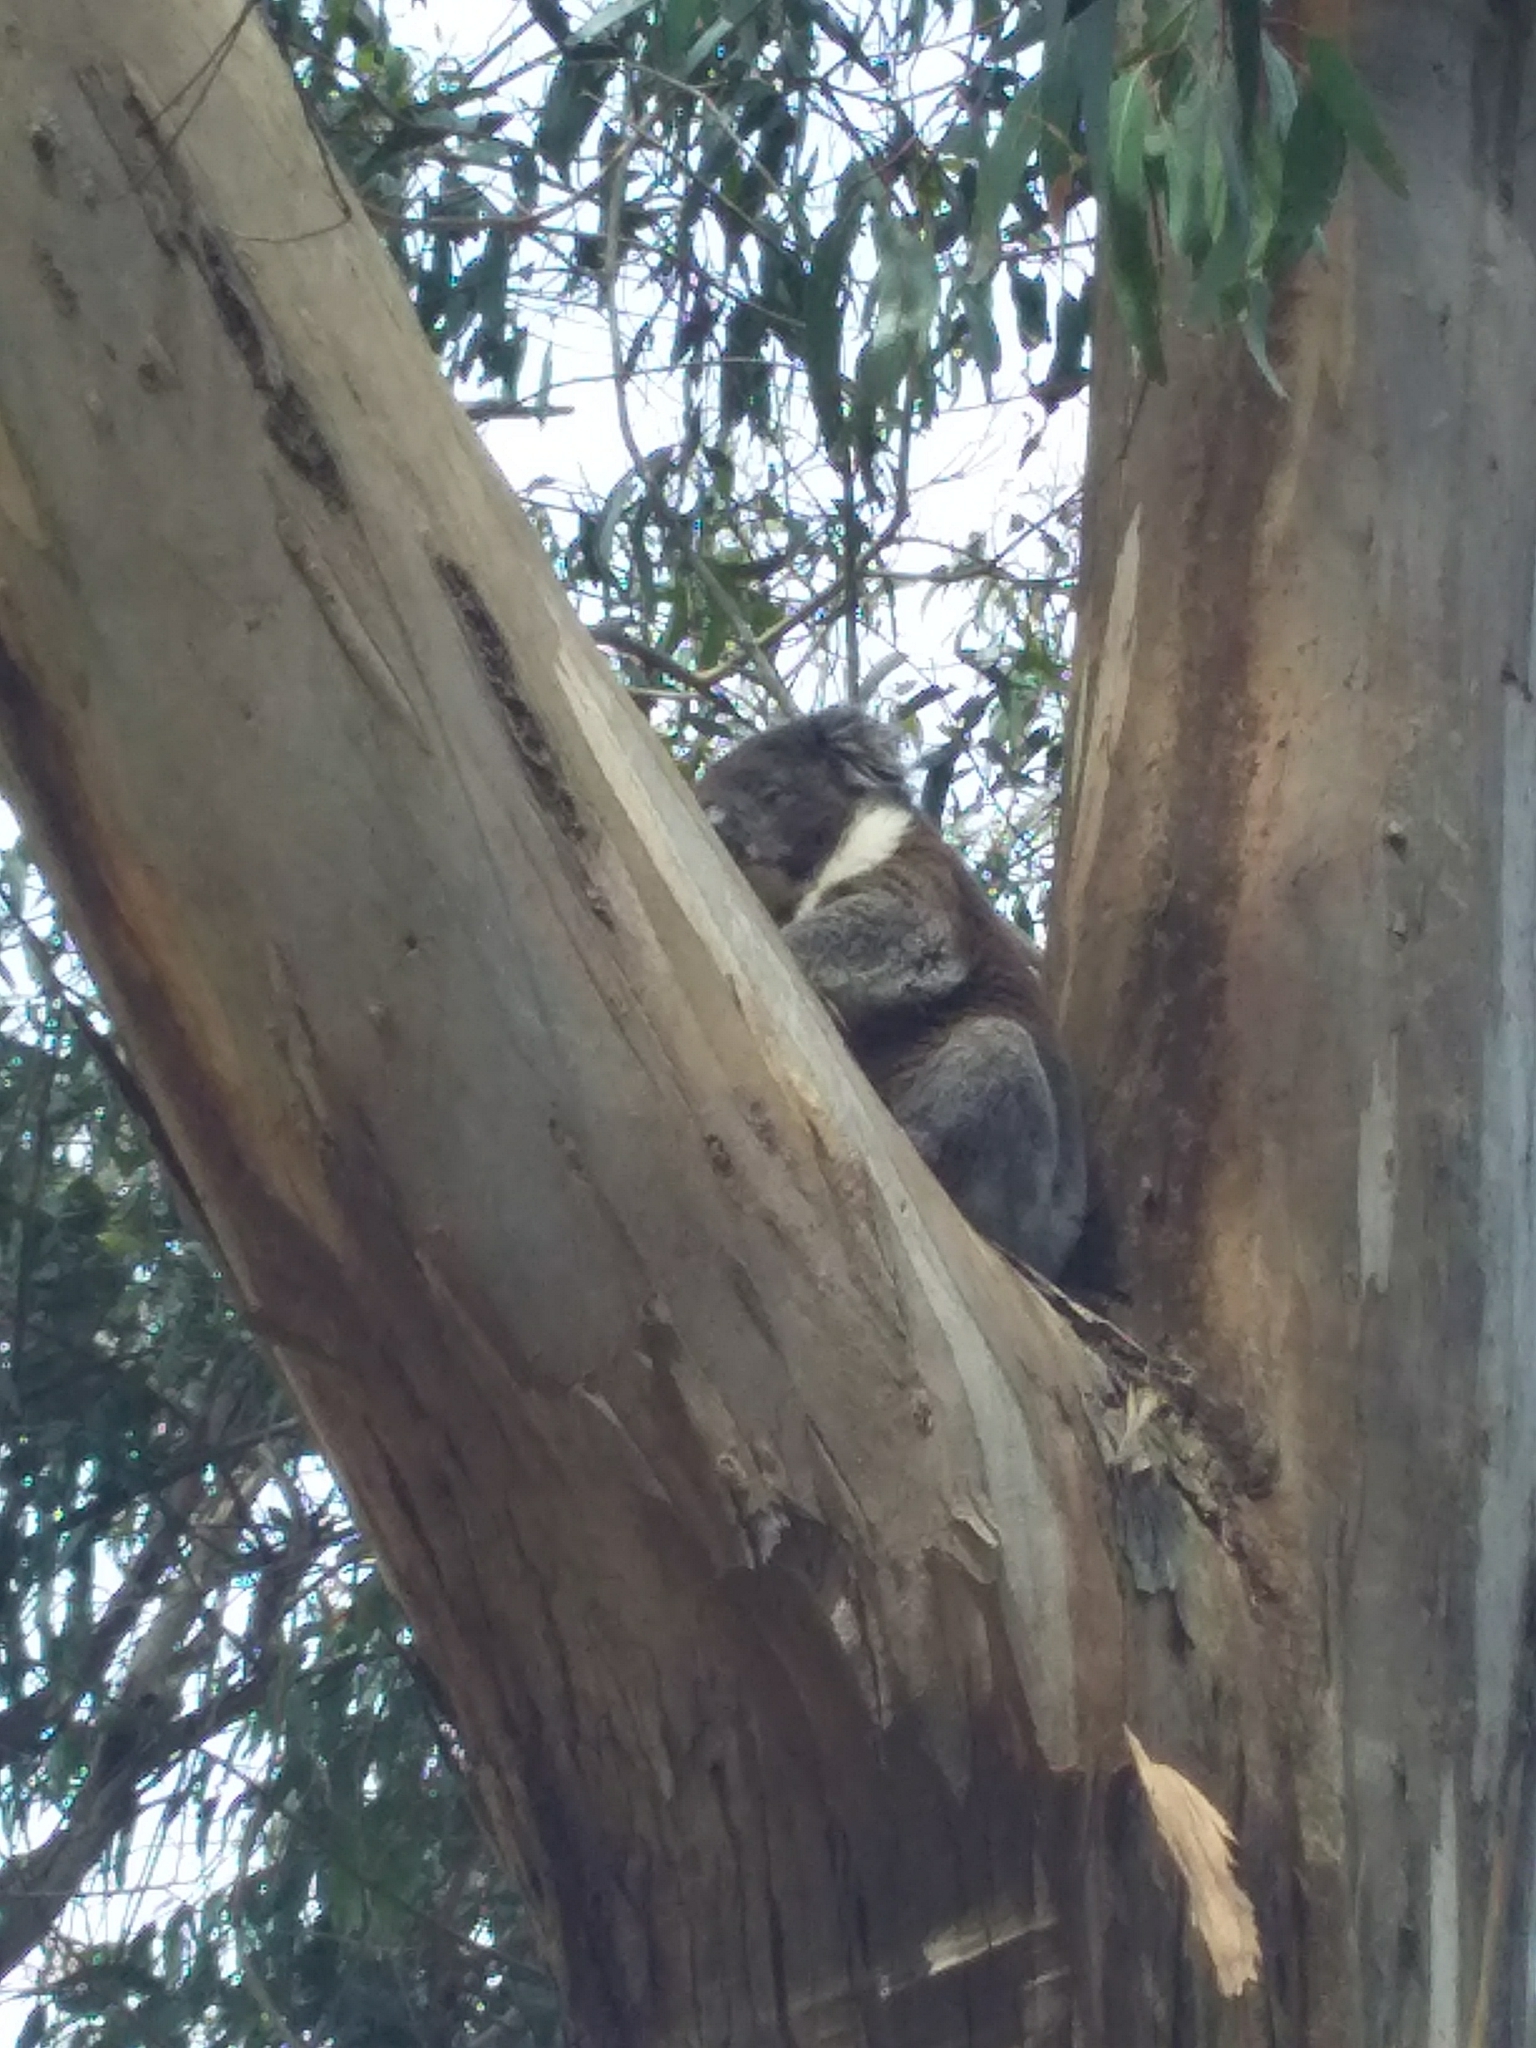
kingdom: Animalia
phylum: Chordata
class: Mammalia
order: Diprotodontia
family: Phascolarctidae
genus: Phascolarctos
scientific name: Phascolarctos cinereus
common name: Koala
